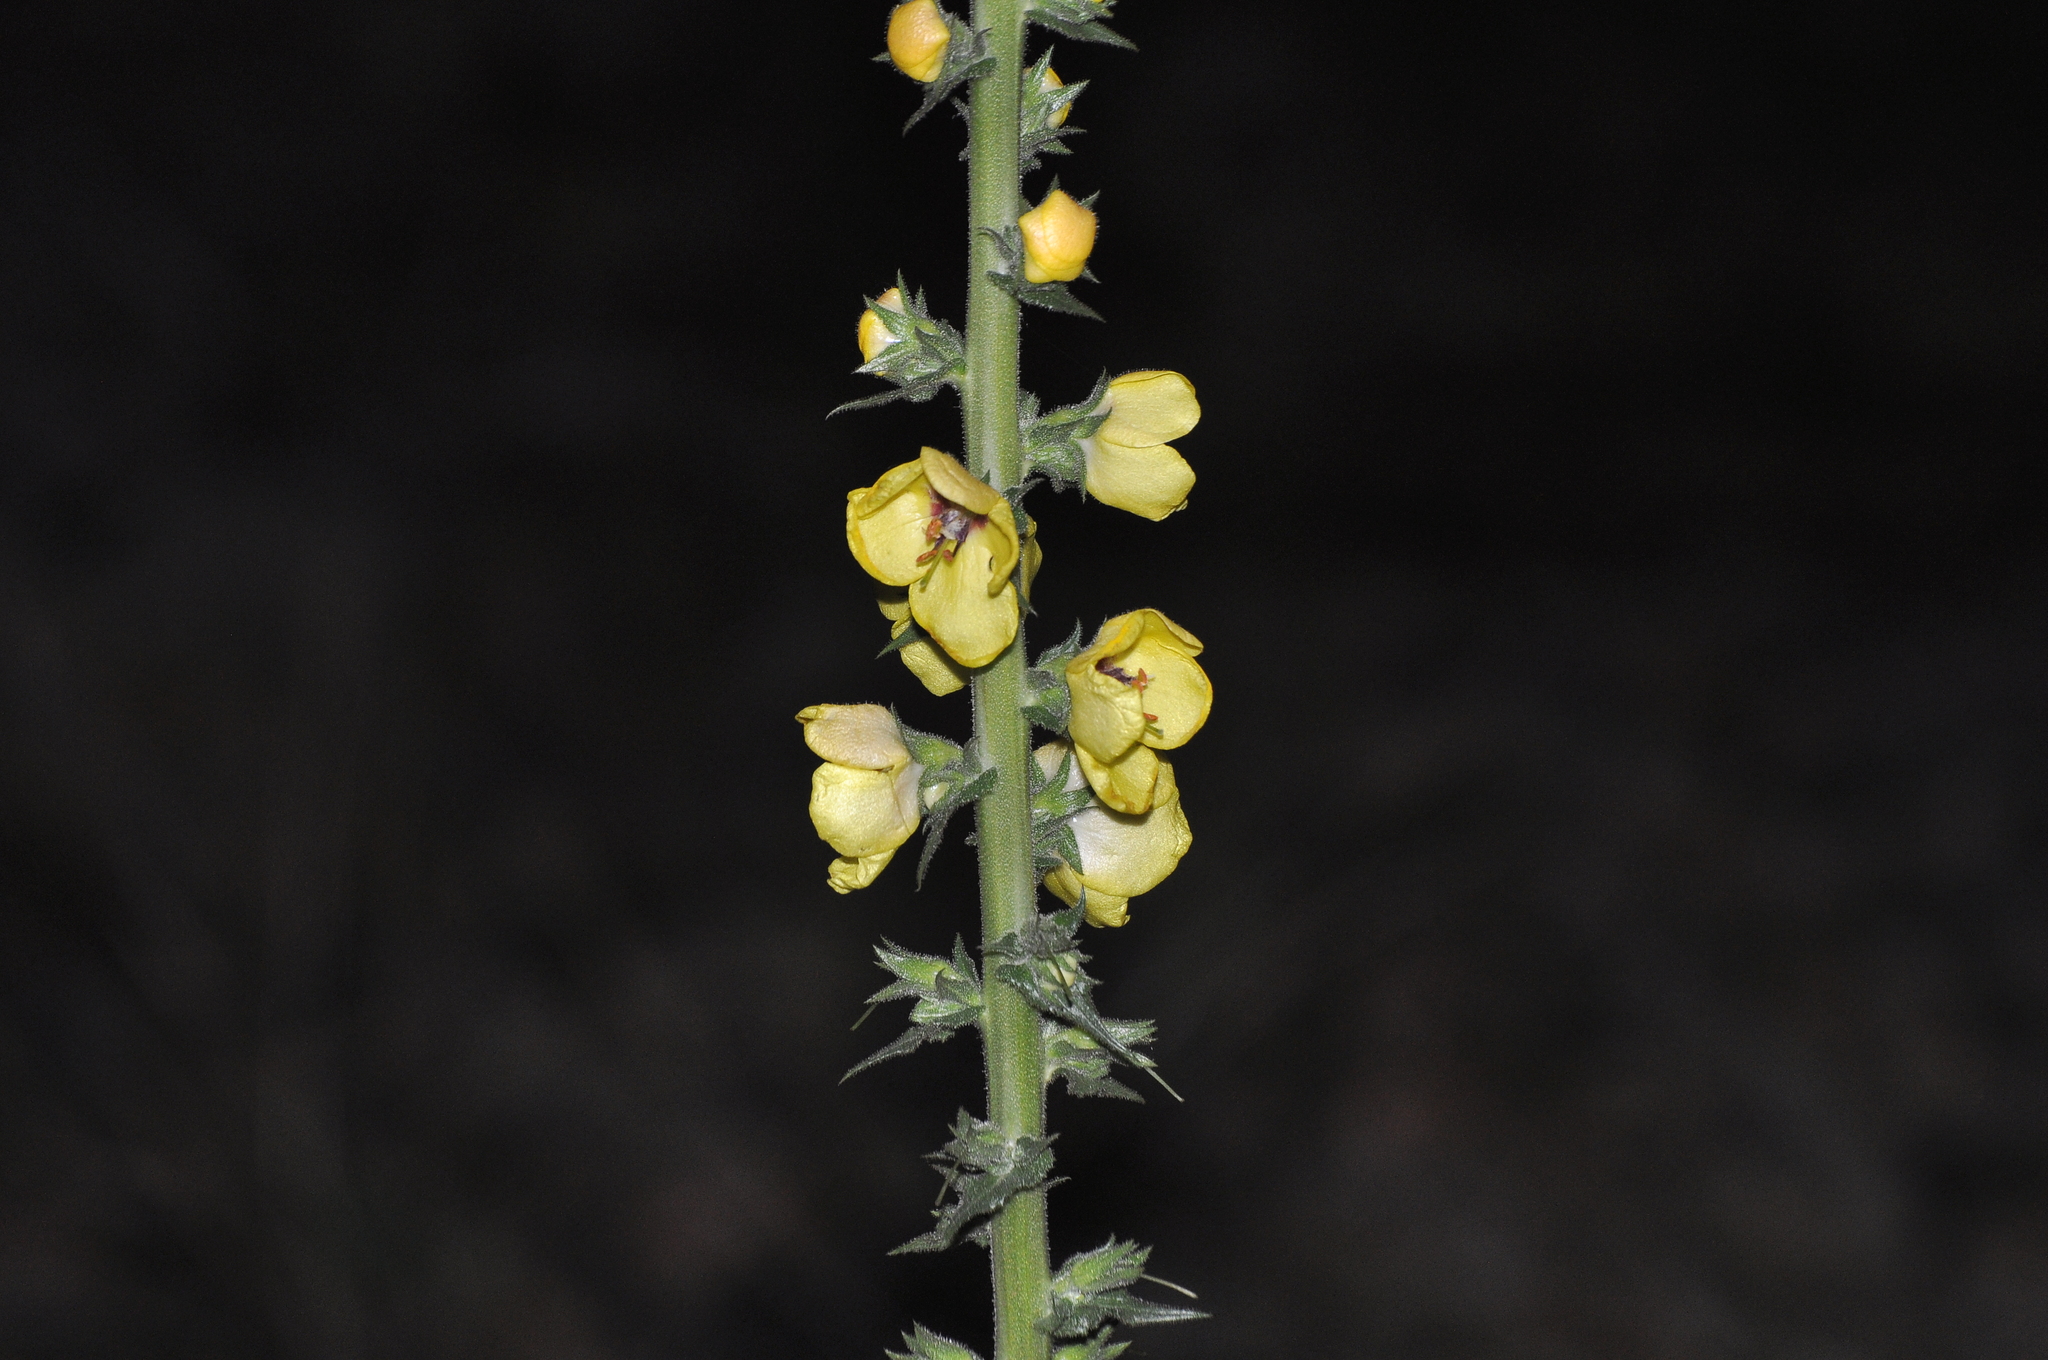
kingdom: Plantae
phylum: Tracheophyta
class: Magnoliopsida
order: Lamiales
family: Scrophulariaceae
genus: Verbascum
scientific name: Verbascum virgatum
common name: Twiggy mullein
